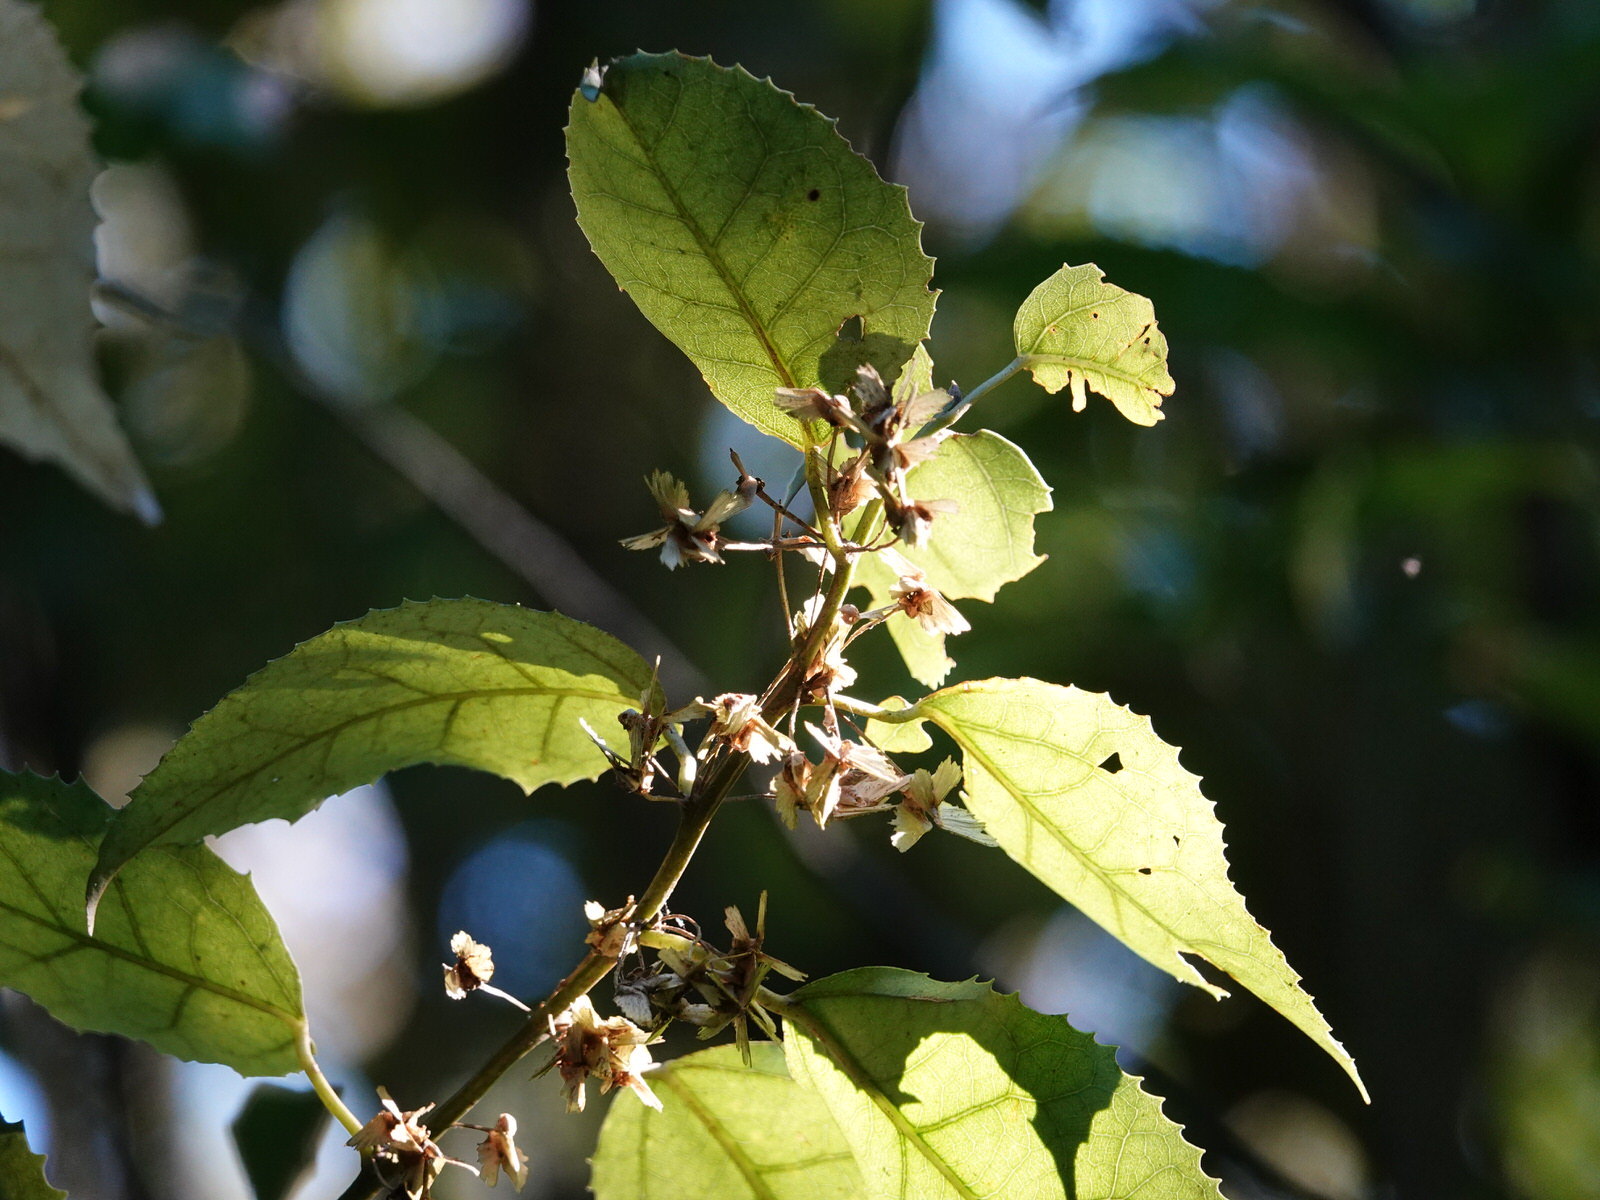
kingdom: Plantae
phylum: Tracheophyta
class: Magnoliopsida
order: Malvales
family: Malvaceae
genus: Hoheria
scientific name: Hoheria populnea
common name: Lacebark
